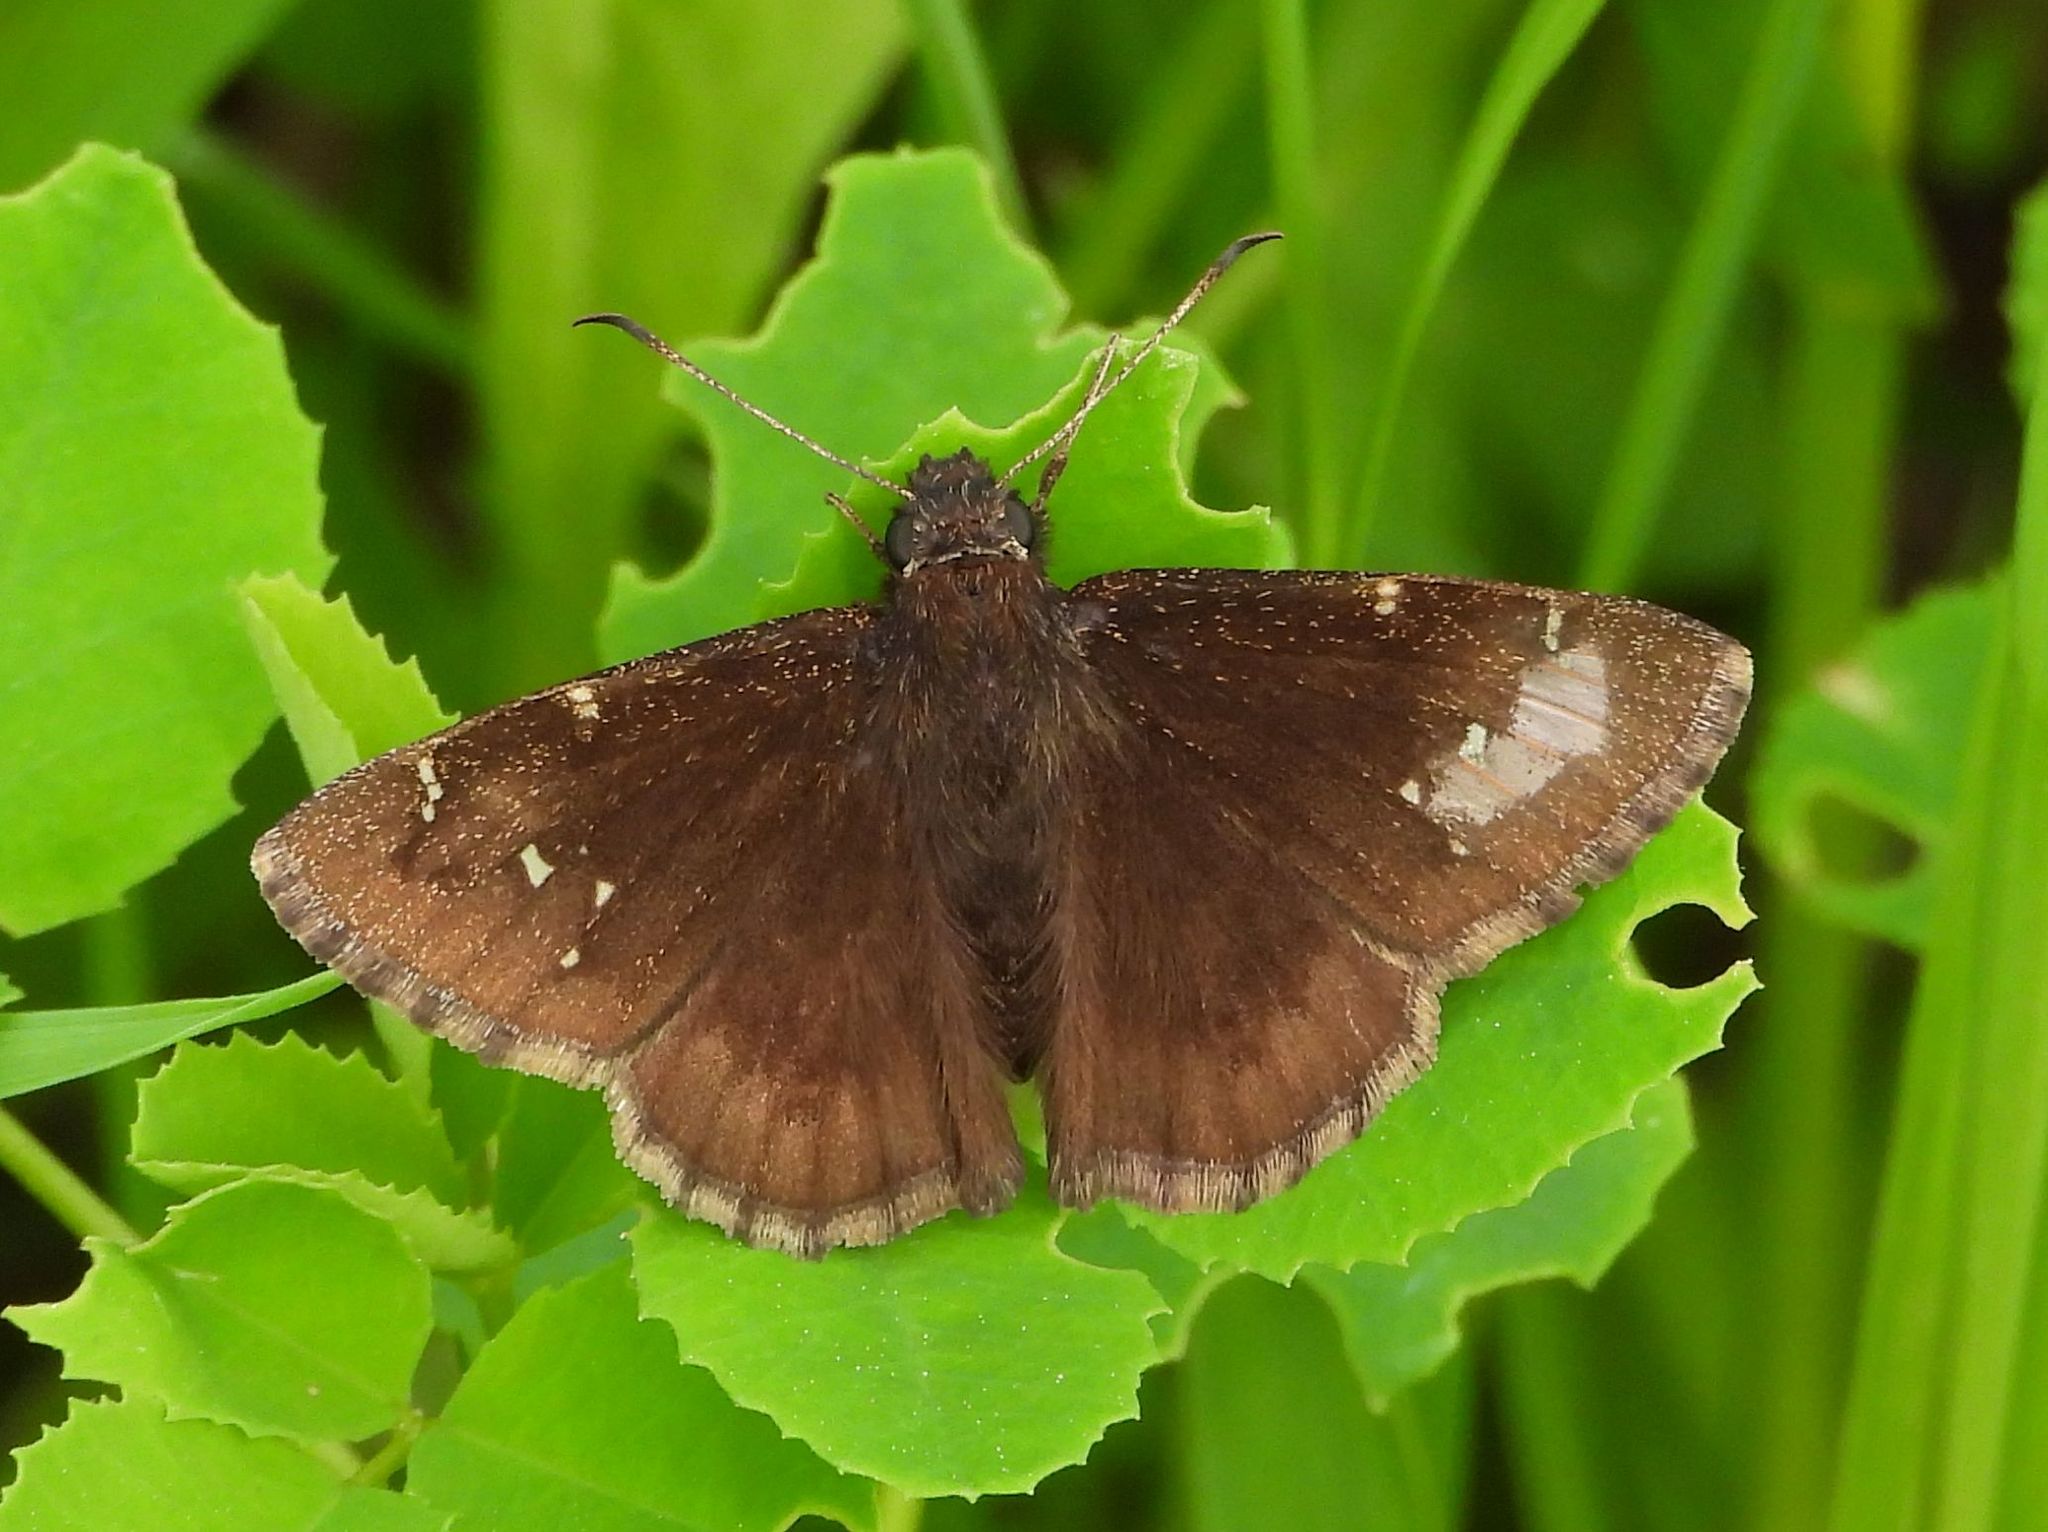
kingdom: Animalia
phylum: Arthropoda
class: Insecta
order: Lepidoptera
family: Hesperiidae
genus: Thorybes
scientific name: Thorybes pylades
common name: Northern cloudywing
